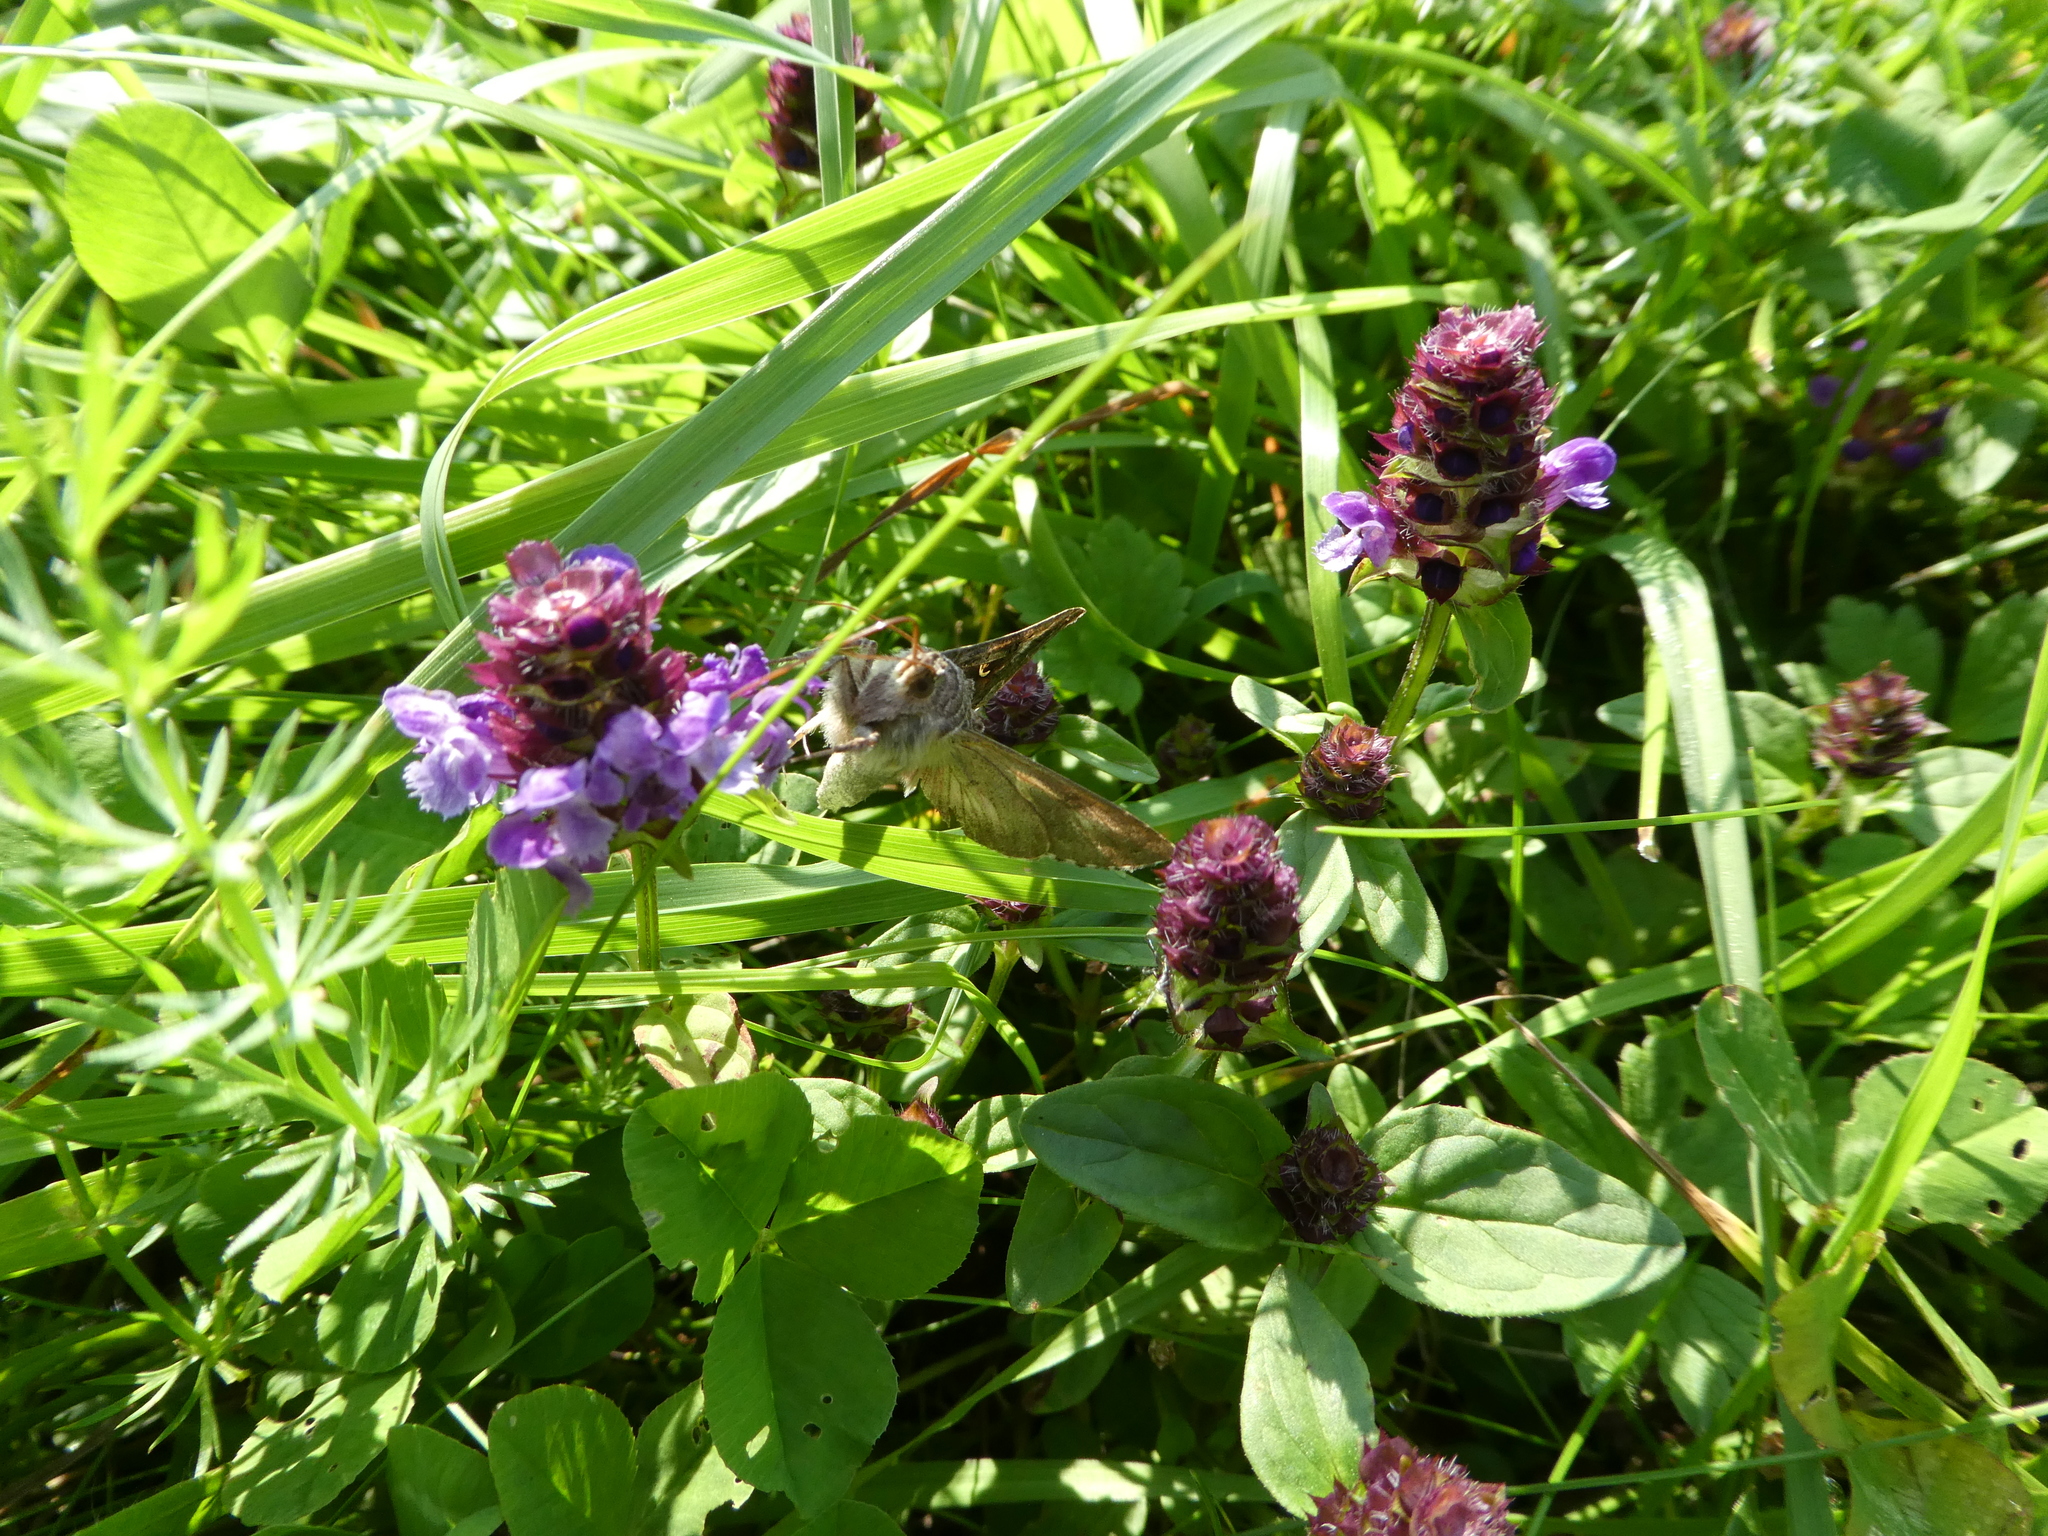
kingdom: Animalia
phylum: Arthropoda
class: Insecta
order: Lepidoptera
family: Noctuidae
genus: Autographa
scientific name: Autographa gamma
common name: Silver y
